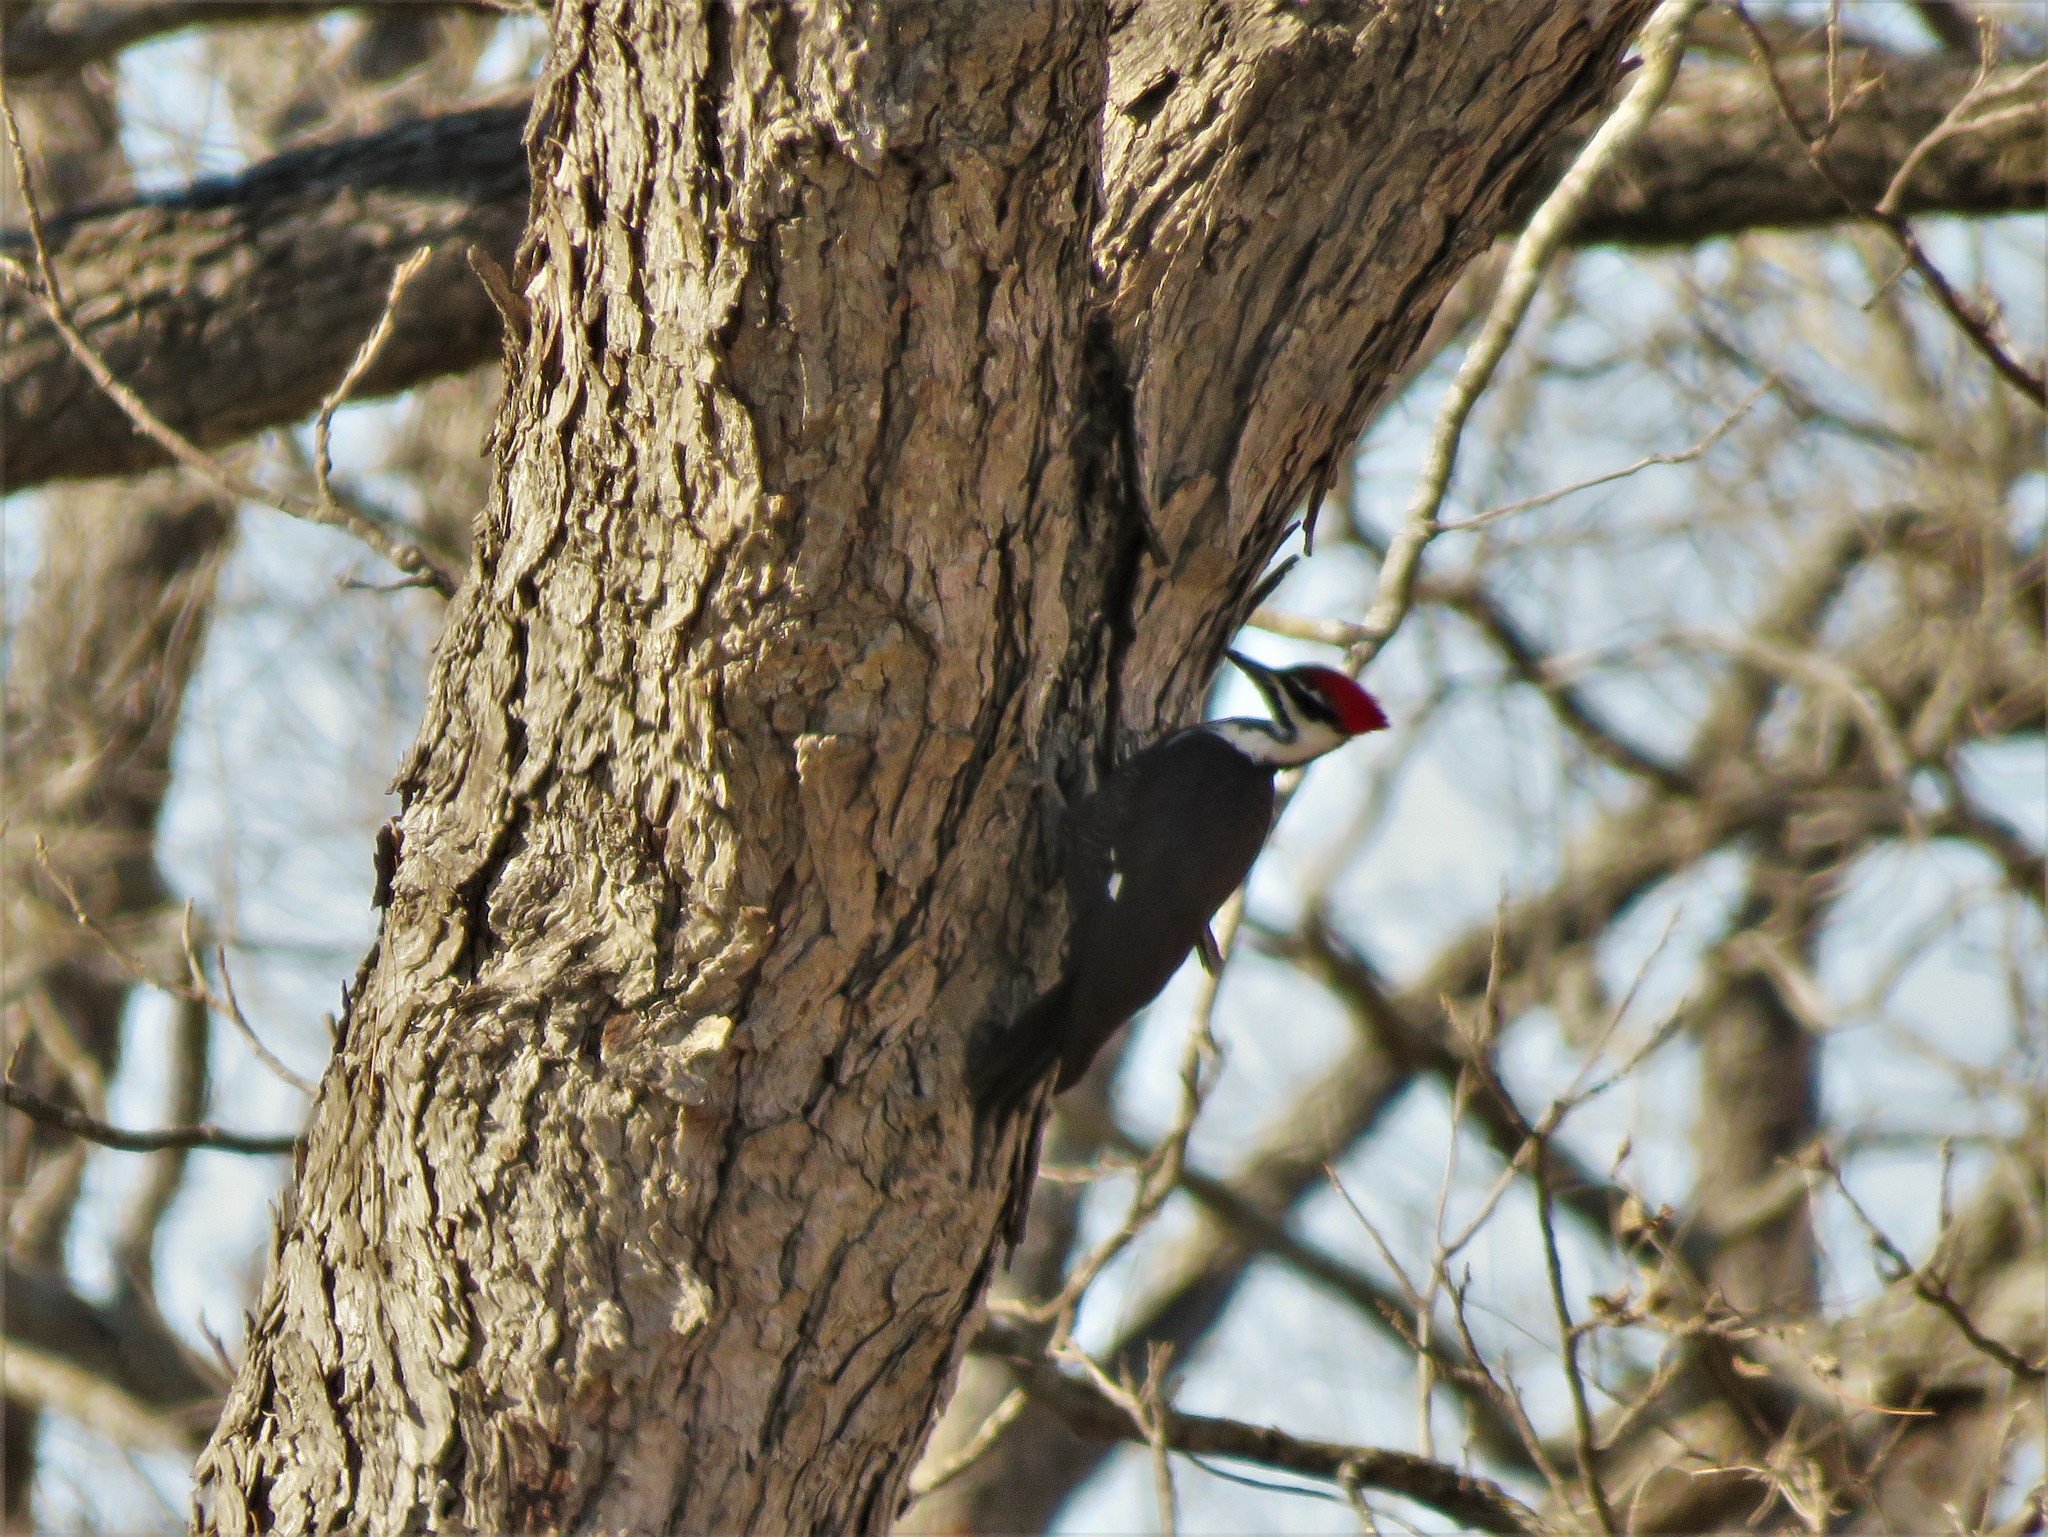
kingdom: Animalia
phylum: Chordata
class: Aves
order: Piciformes
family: Picidae
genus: Dryocopus
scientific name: Dryocopus pileatus
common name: Pileated woodpecker
